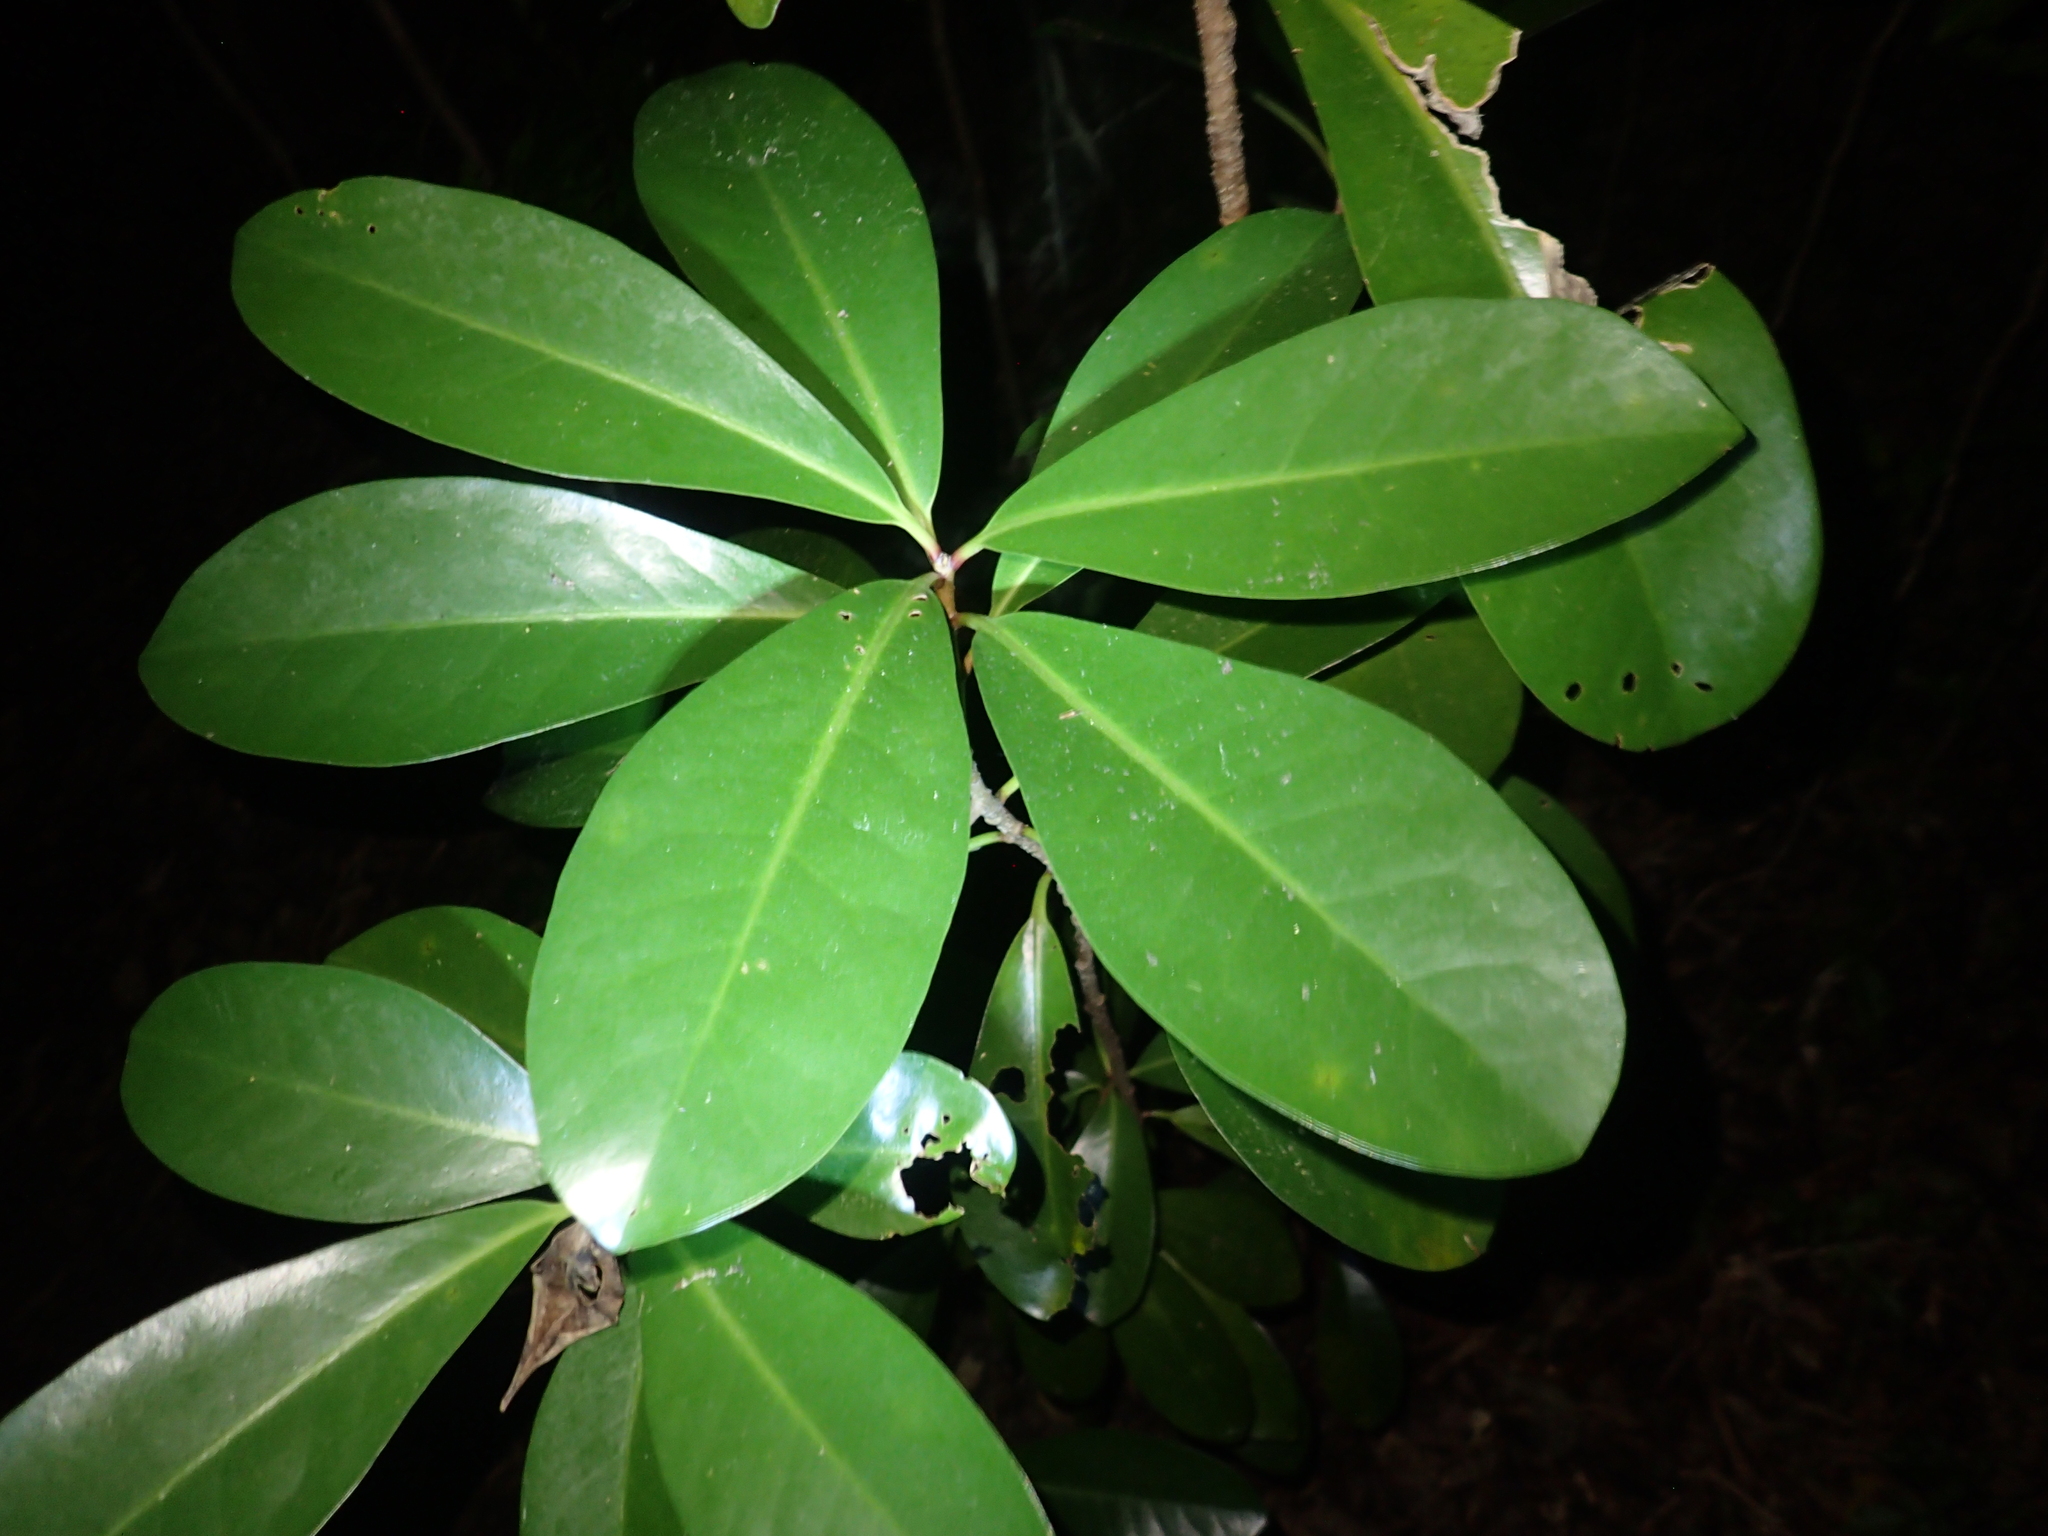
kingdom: Plantae
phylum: Tracheophyta
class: Magnoliopsida
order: Cucurbitales
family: Corynocarpaceae
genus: Corynocarpus
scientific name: Corynocarpus laevigatus
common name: New zealand laurel
